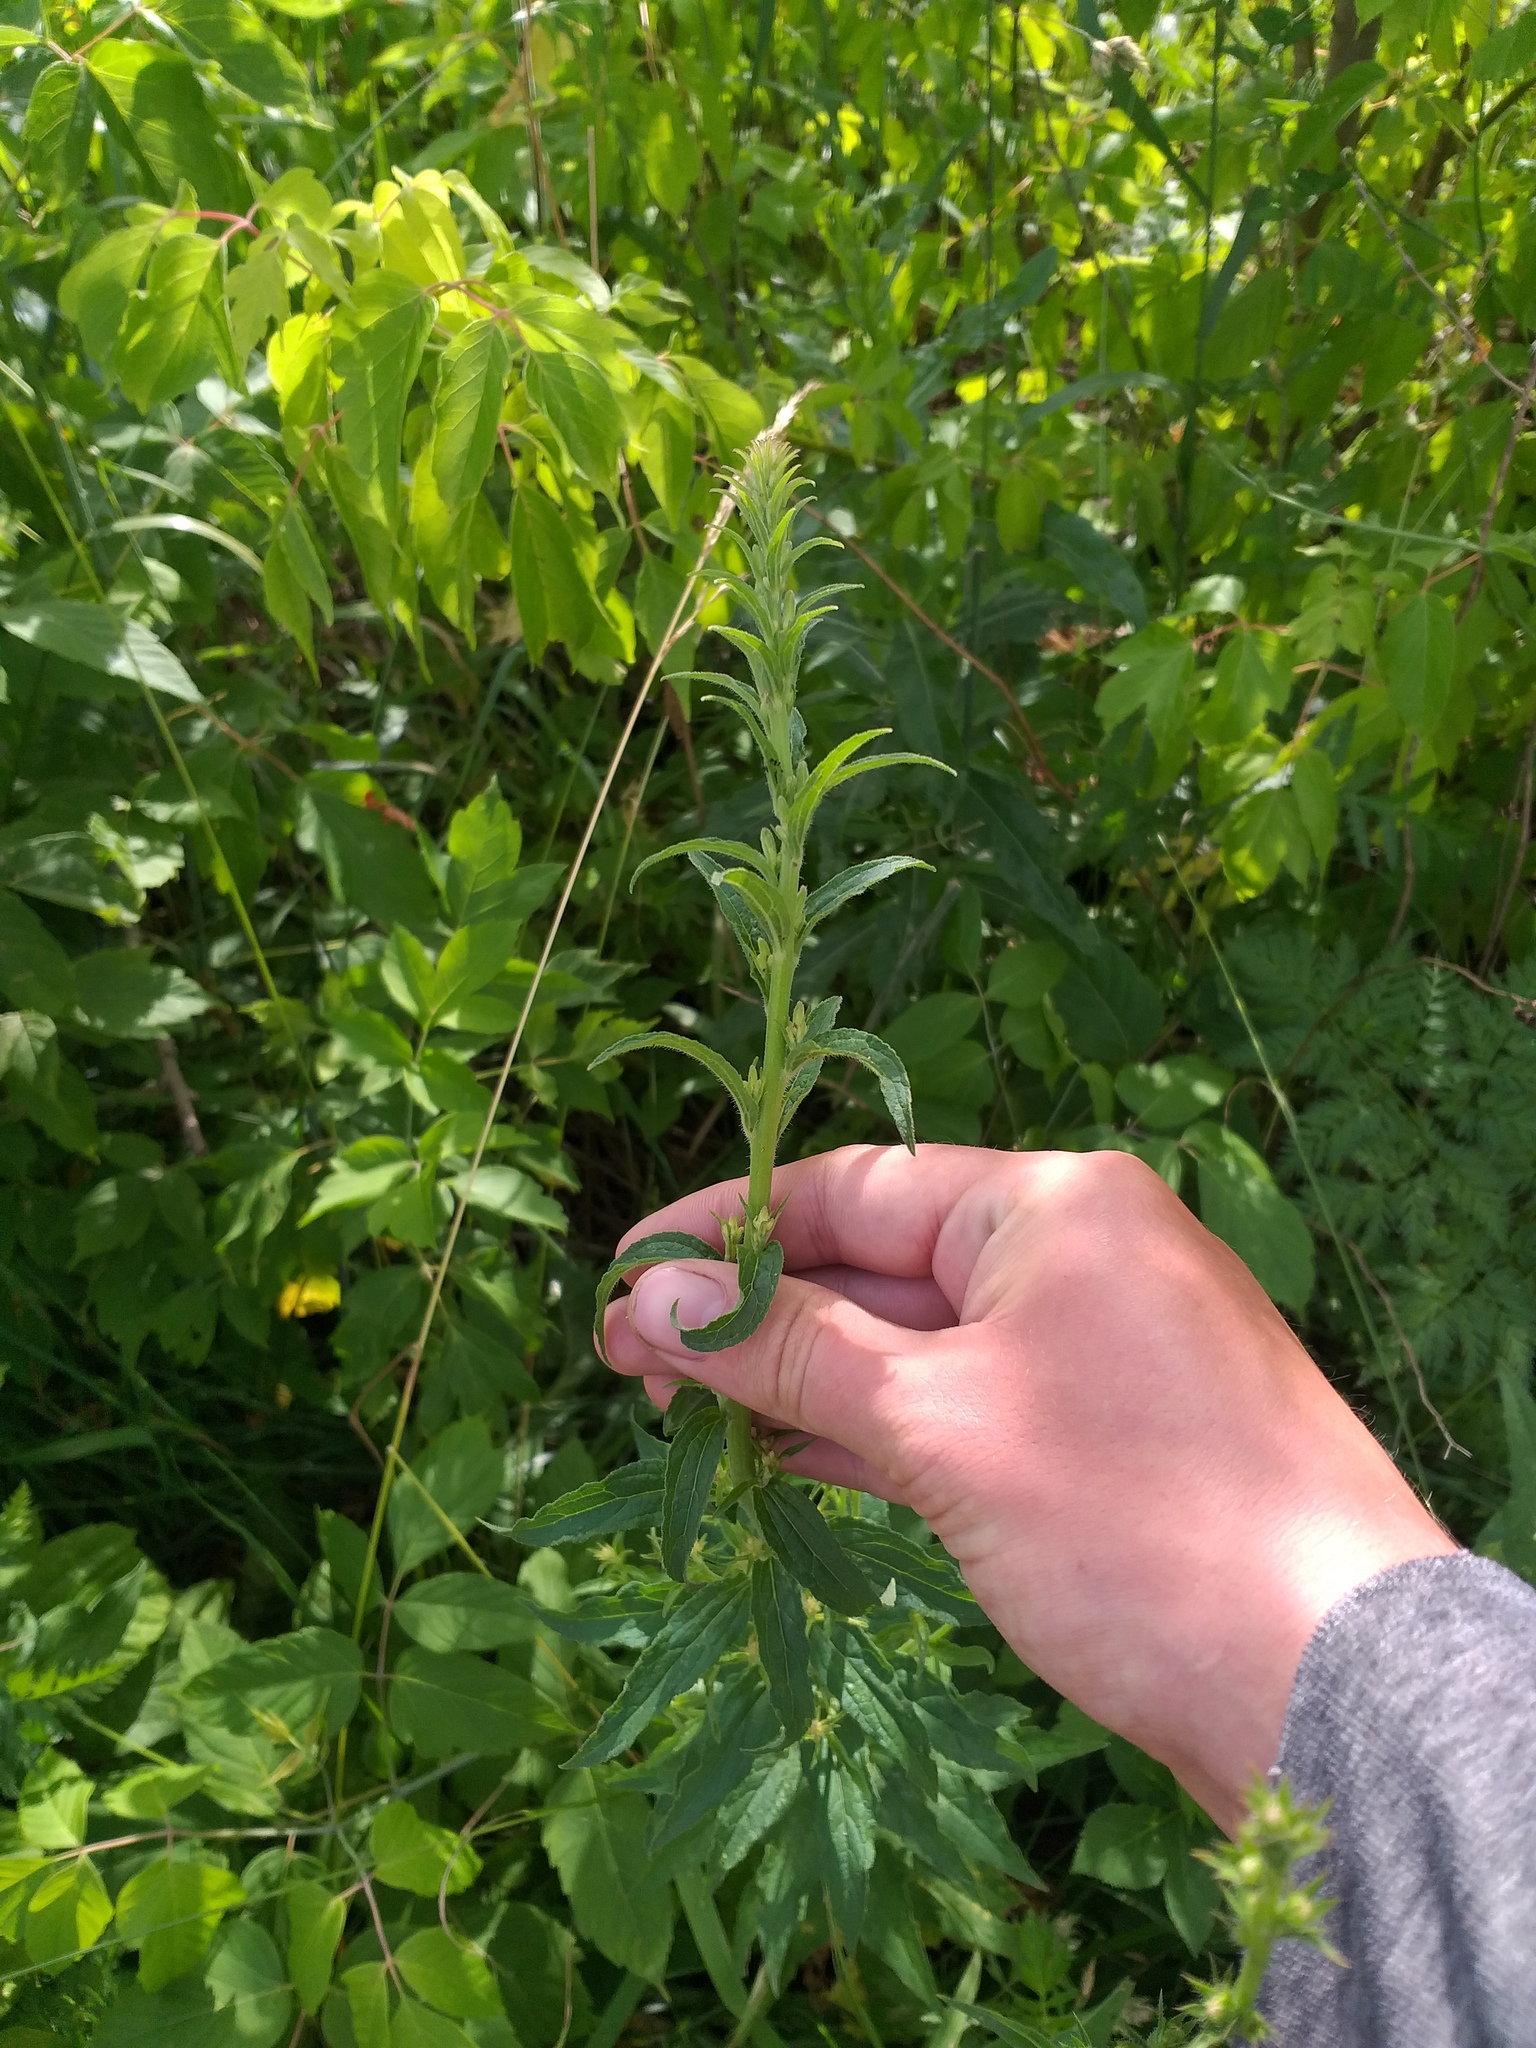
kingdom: Plantae
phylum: Tracheophyta
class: Magnoliopsida
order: Asterales
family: Campanulaceae
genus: Campanula
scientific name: Campanula rapunculoides
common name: Creeping bellflower
